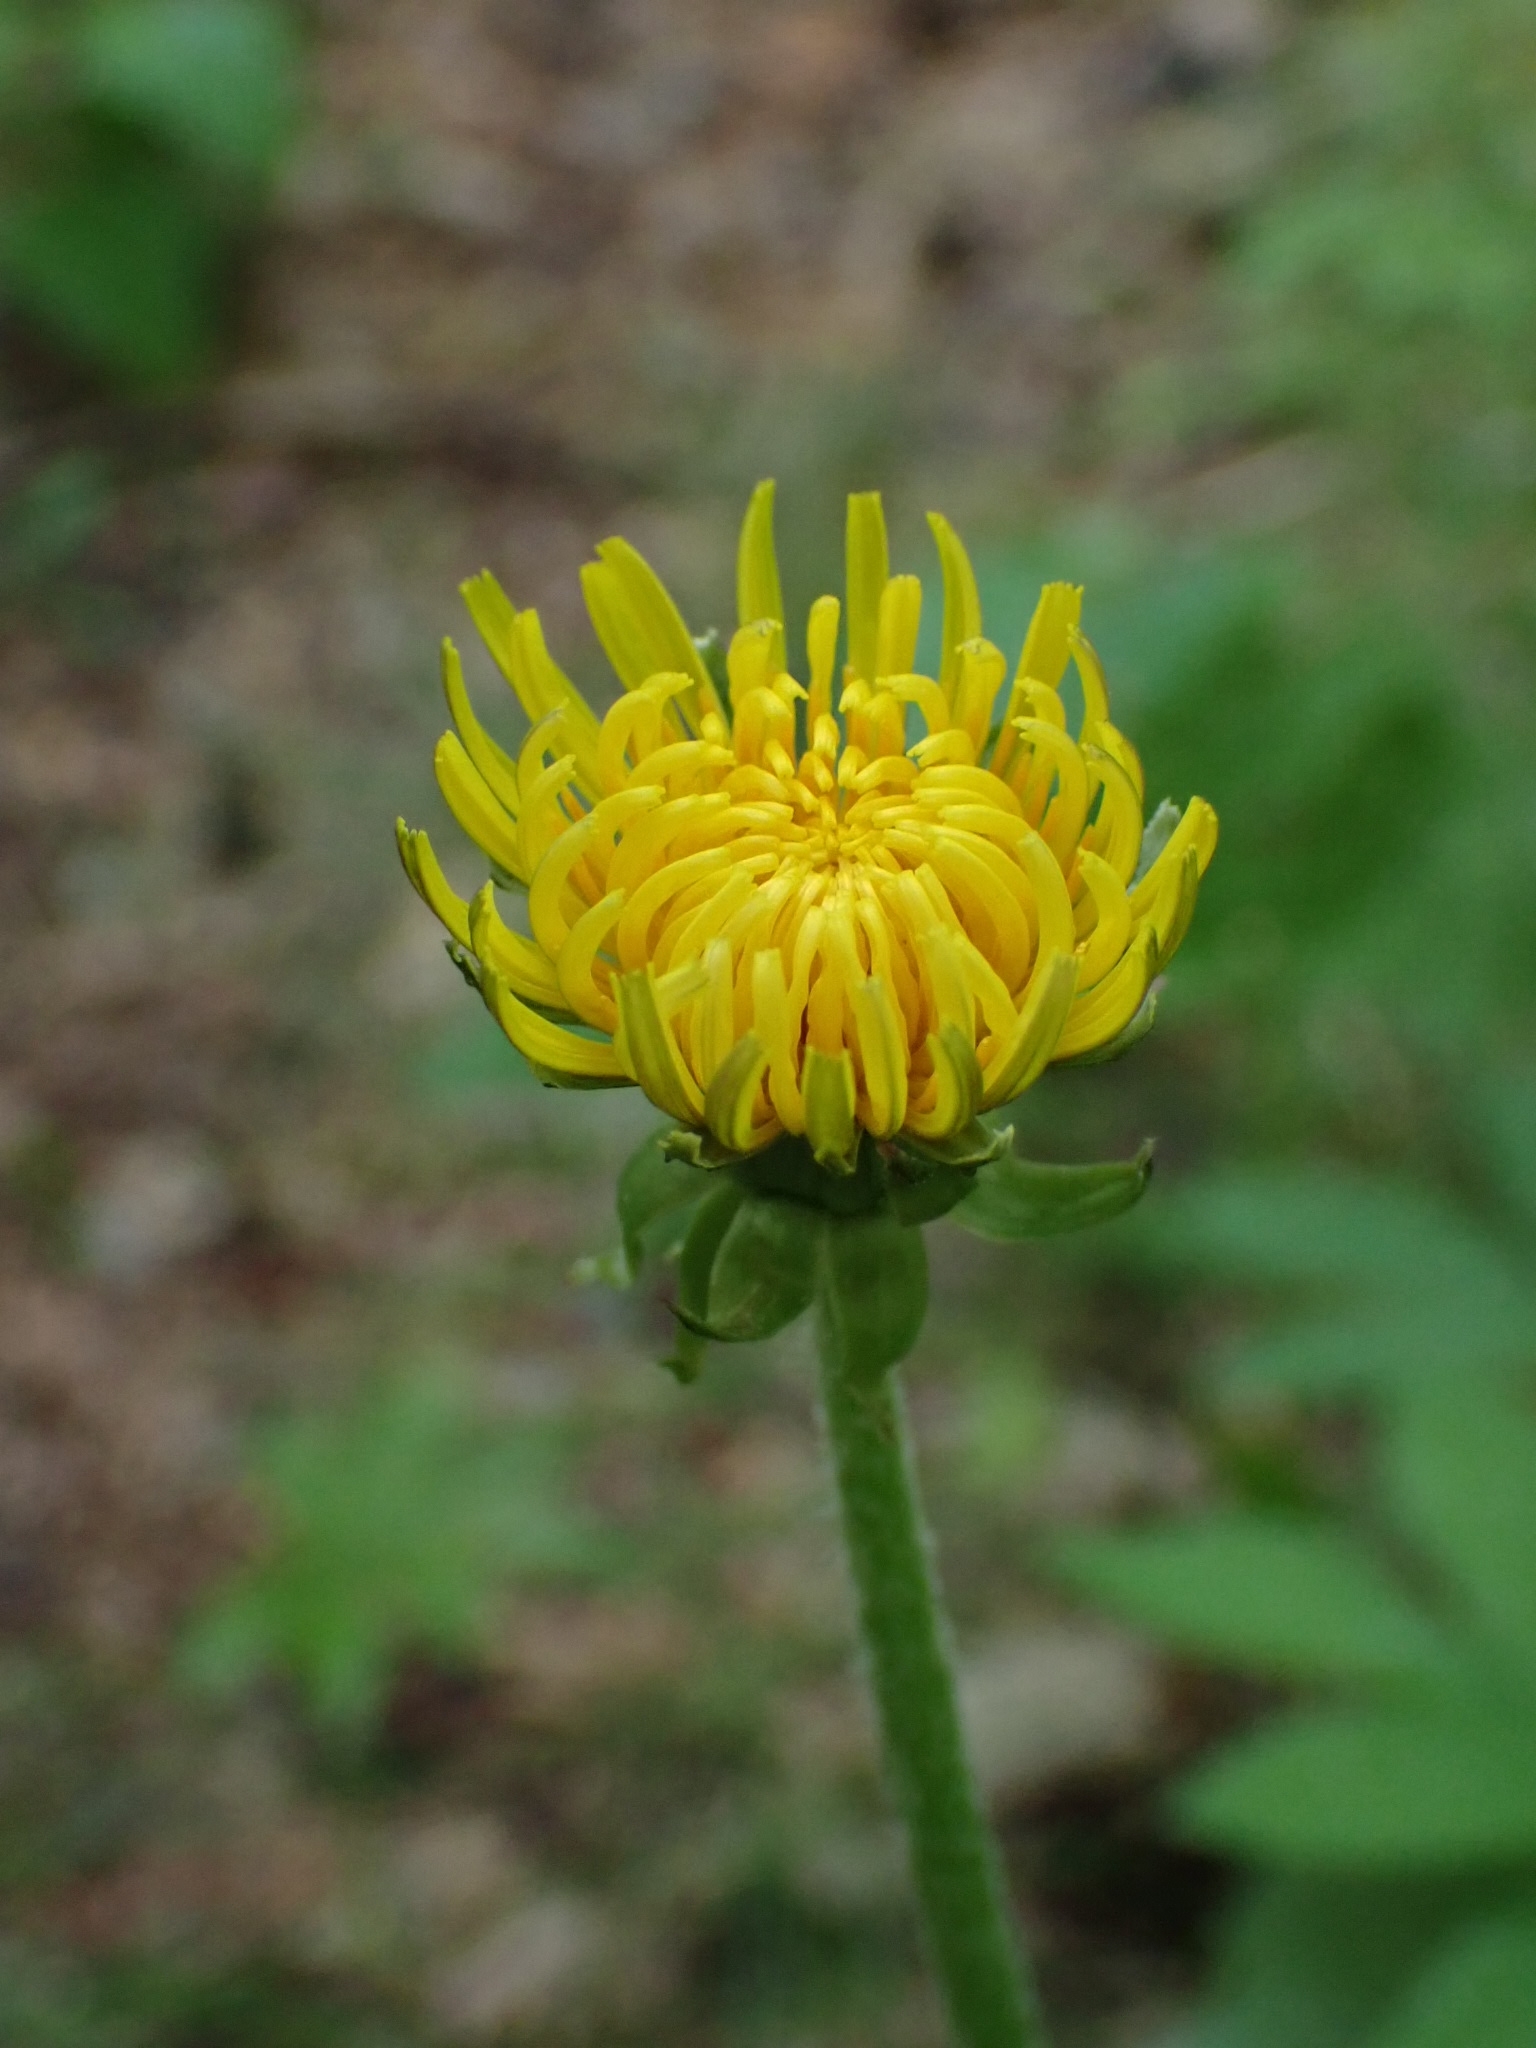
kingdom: Plantae
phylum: Tracheophyta
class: Magnoliopsida
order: Asterales
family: Asteraceae
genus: Taraxacum
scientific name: Taraxacum officinale
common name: Common dandelion
